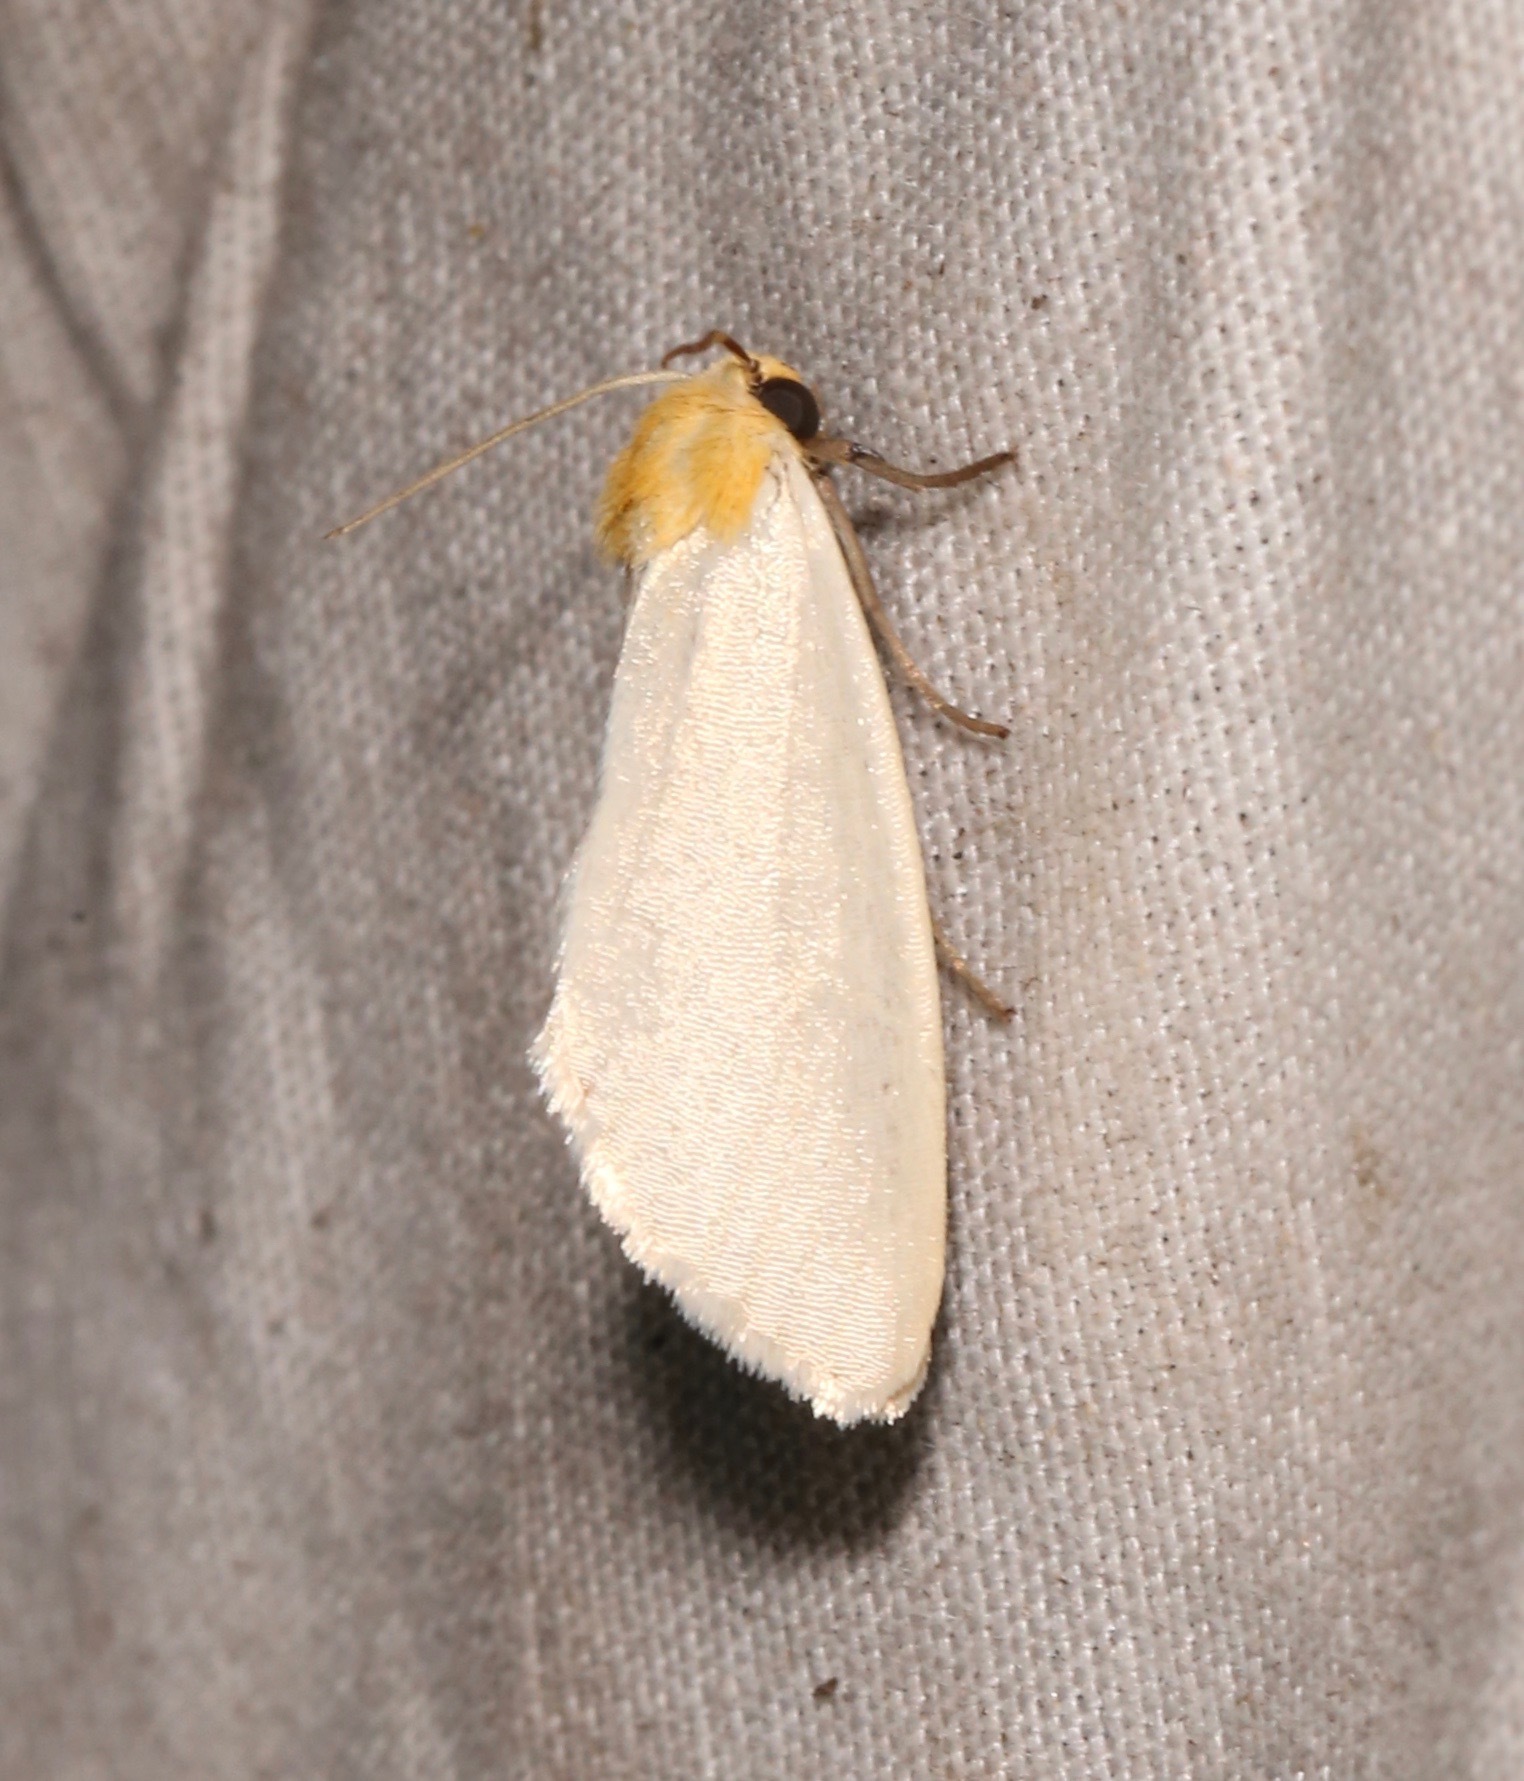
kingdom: Animalia
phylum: Arthropoda
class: Insecta
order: Lepidoptera
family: Noctuidae
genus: Chrysoecia
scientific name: Chrysoecia thoracica
